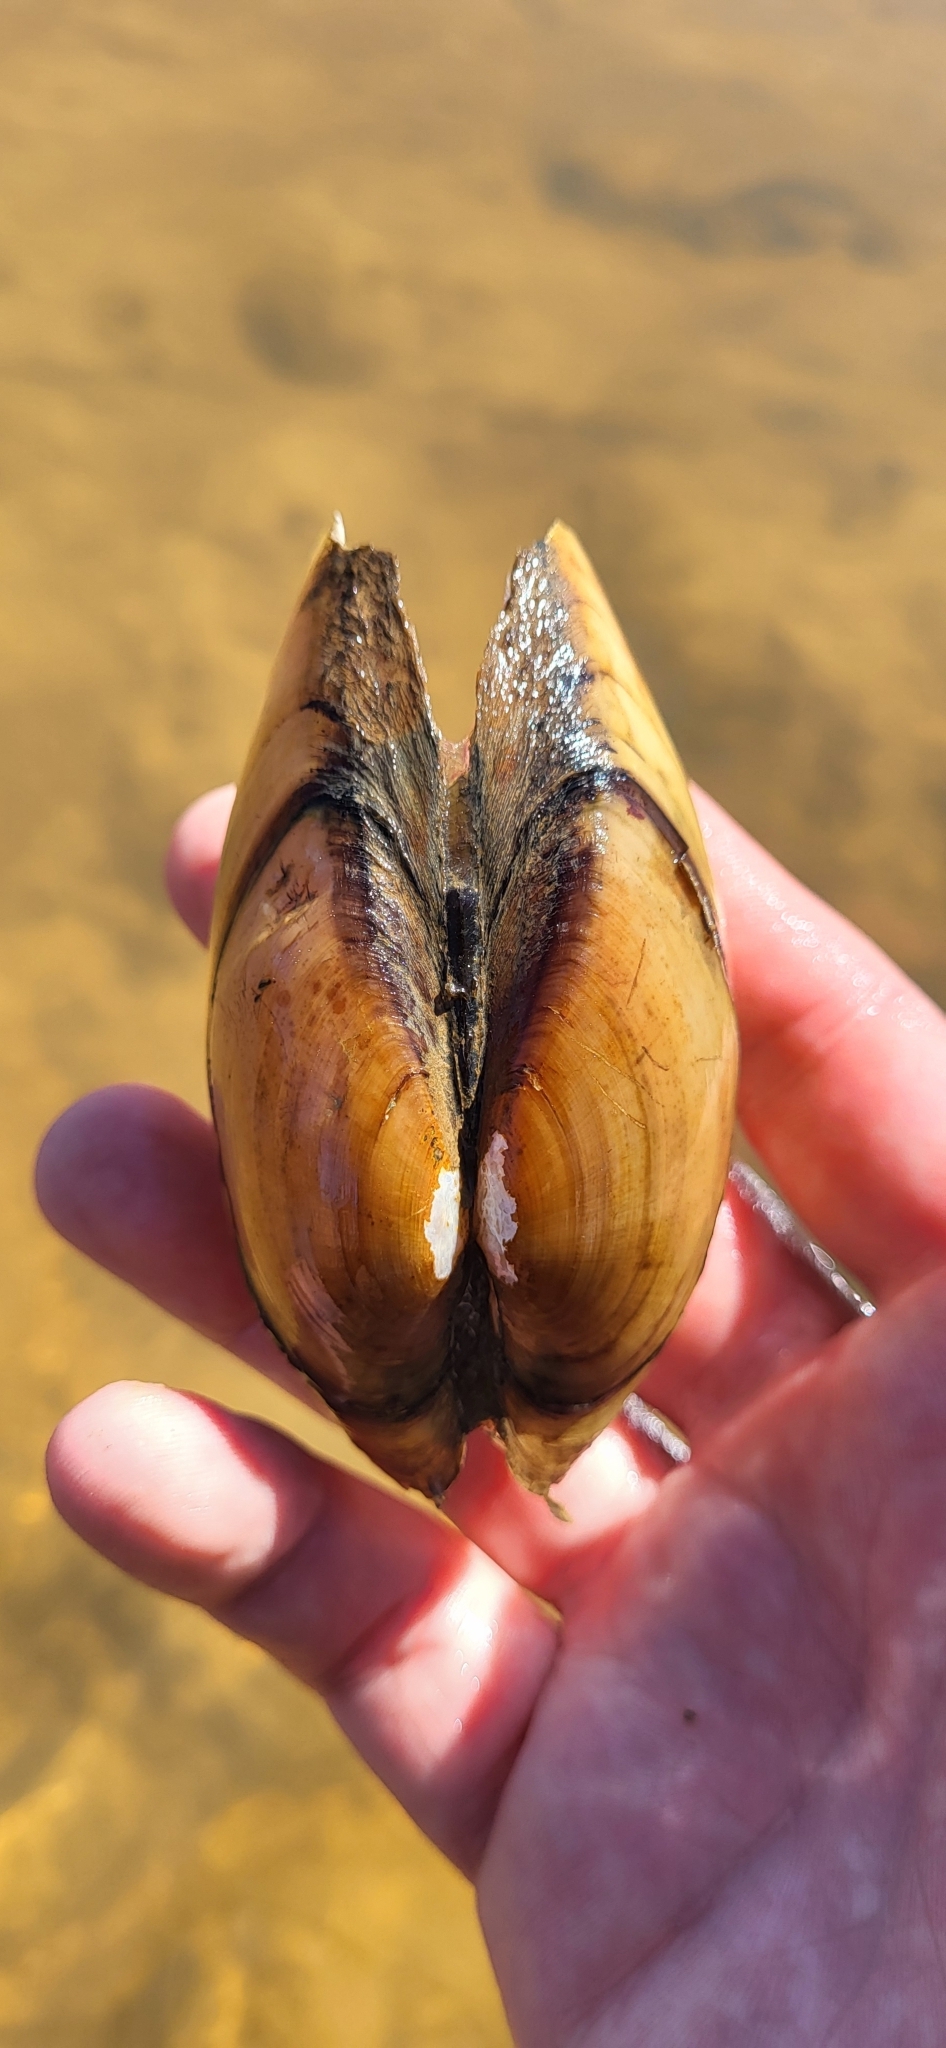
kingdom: Animalia
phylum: Mollusca
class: Bivalvia
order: Unionida
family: Unionidae
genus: Lampsilis
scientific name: Lampsilis teres
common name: Yellow sandshell
